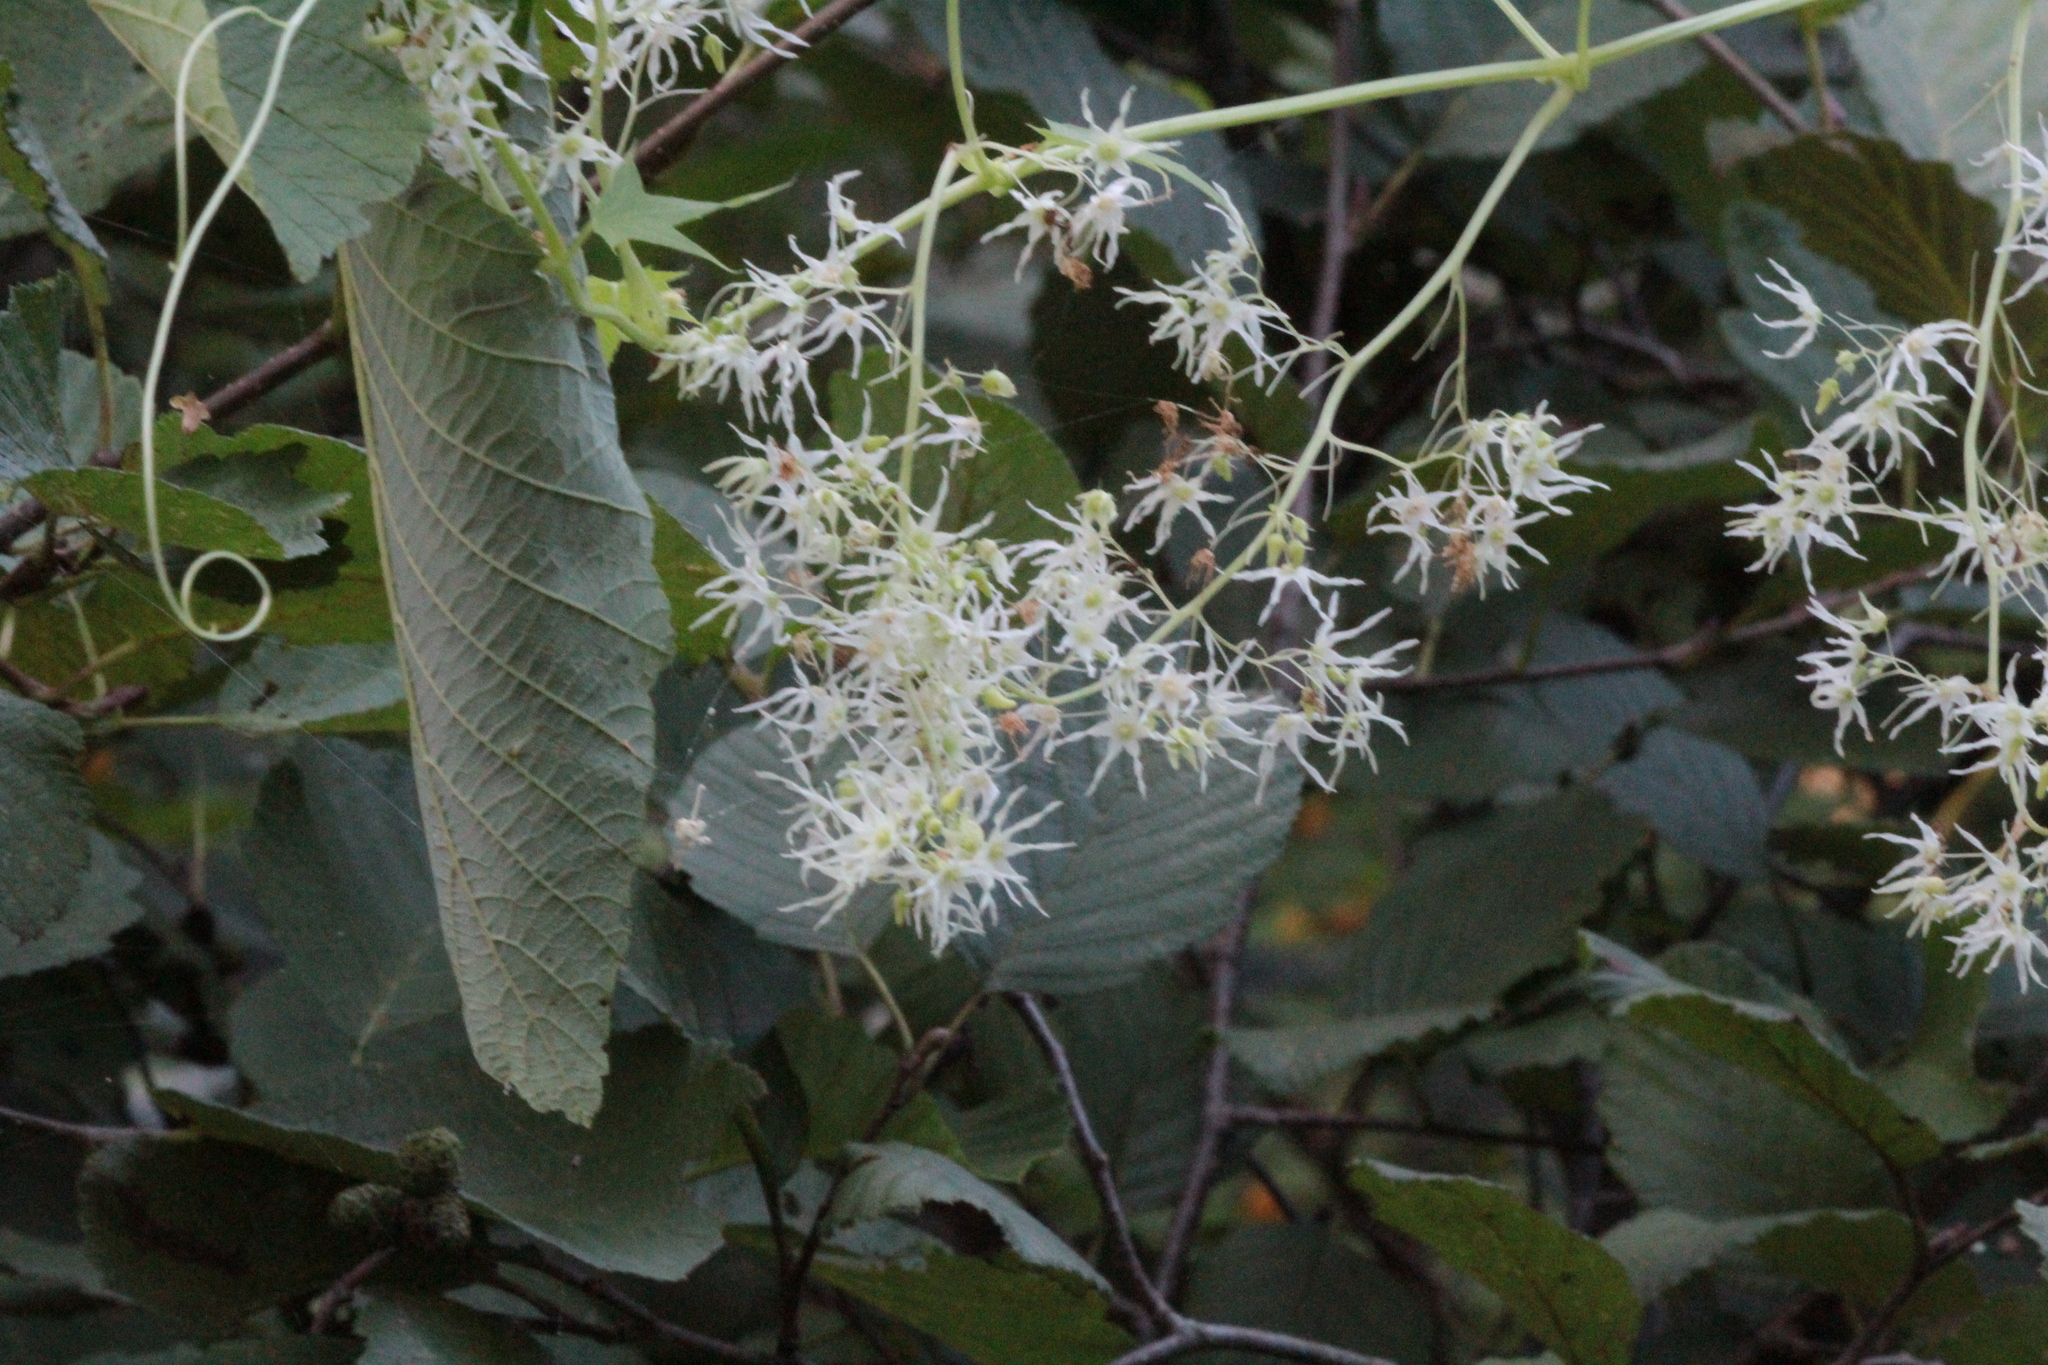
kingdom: Plantae
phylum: Tracheophyta
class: Magnoliopsida
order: Cucurbitales
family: Cucurbitaceae
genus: Echinocystis
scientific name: Echinocystis lobata
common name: Wild cucumber
